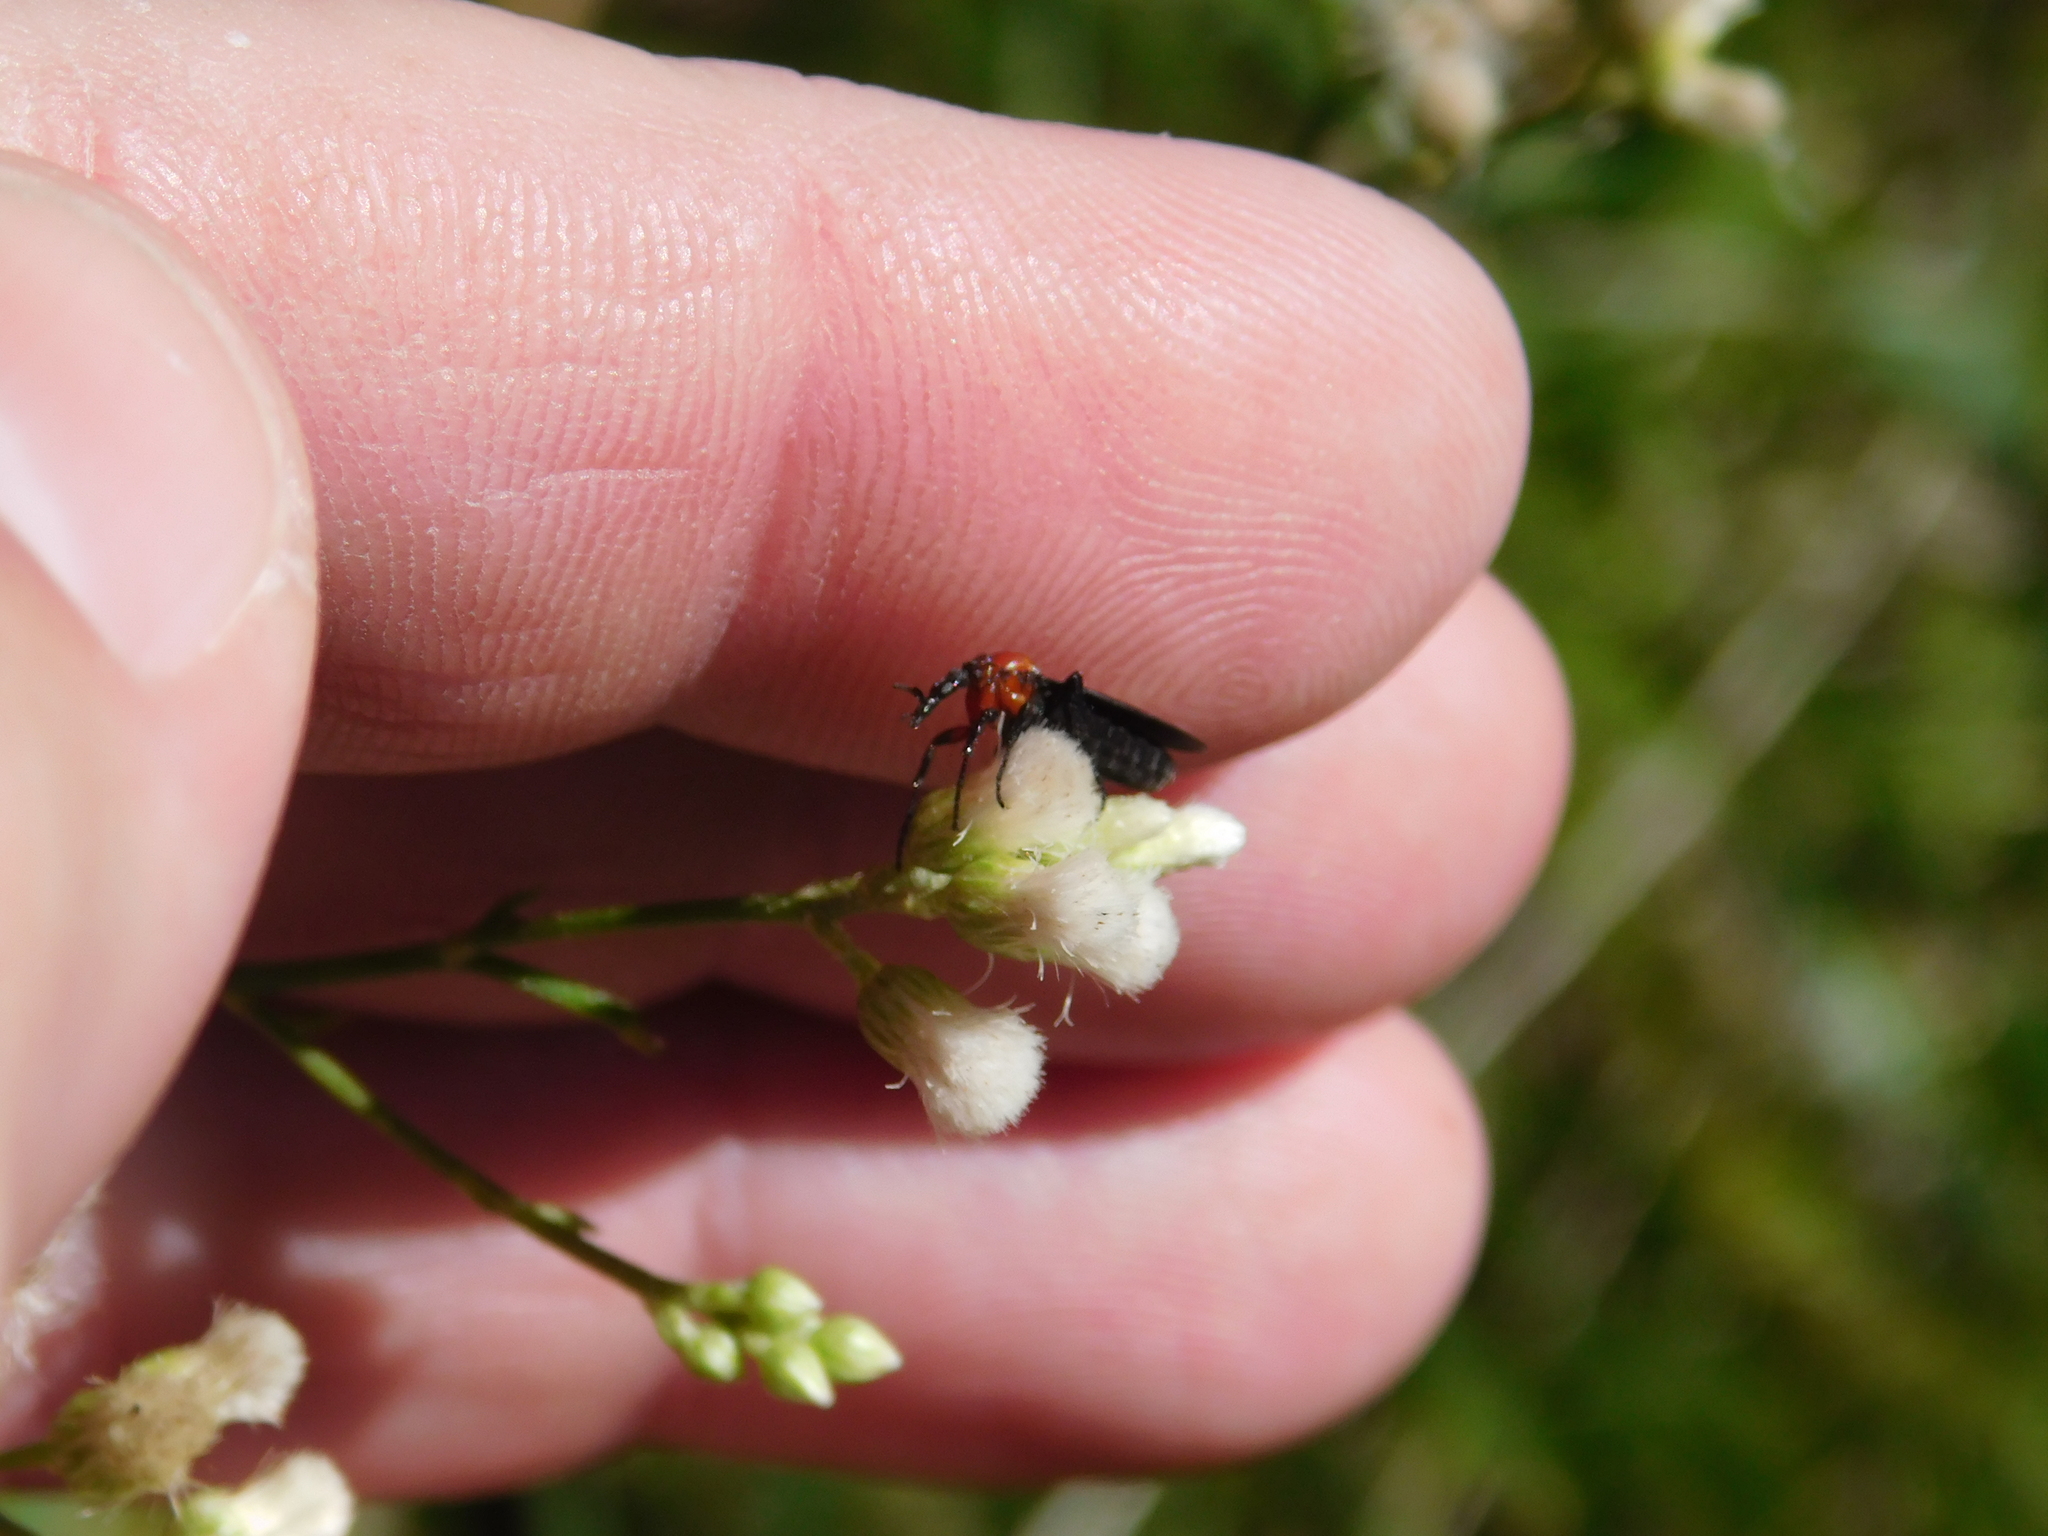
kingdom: Animalia
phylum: Arthropoda
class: Insecta
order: Diptera
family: Bibionidae
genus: Dilophus
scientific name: Dilophus pectoralis
